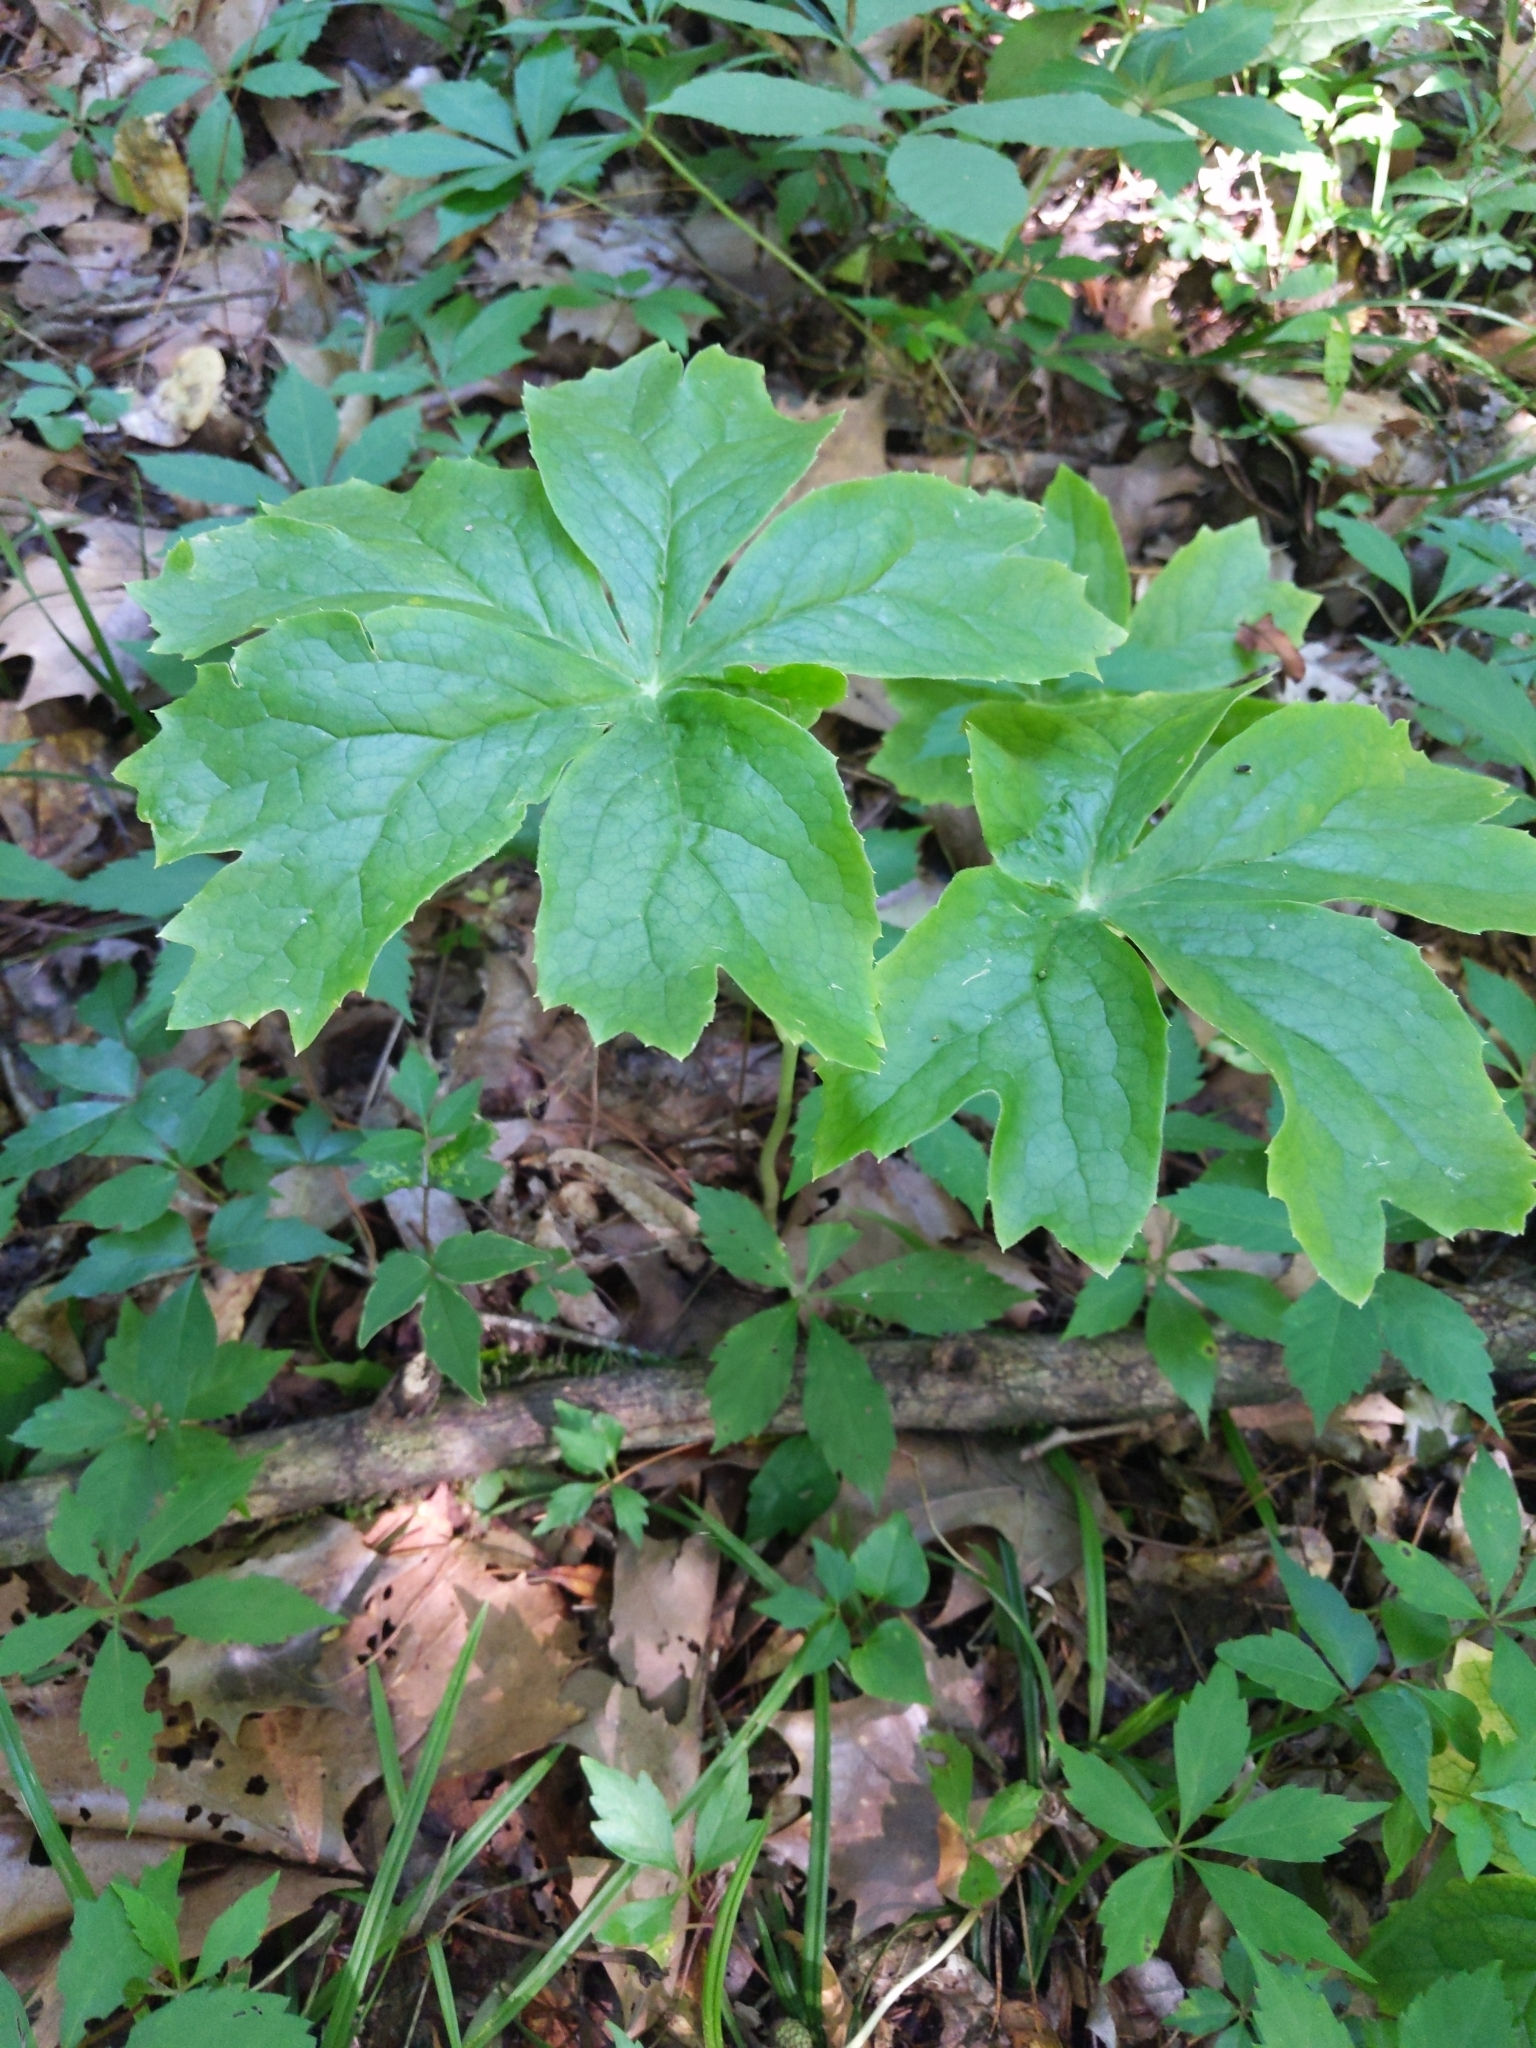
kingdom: Plantae
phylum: Tracheophyta
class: Magnoliopsida
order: Ranunculales
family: Berberidaceae
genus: Podophyllum
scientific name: Podophyllum peltatum
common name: Wild mandrake
